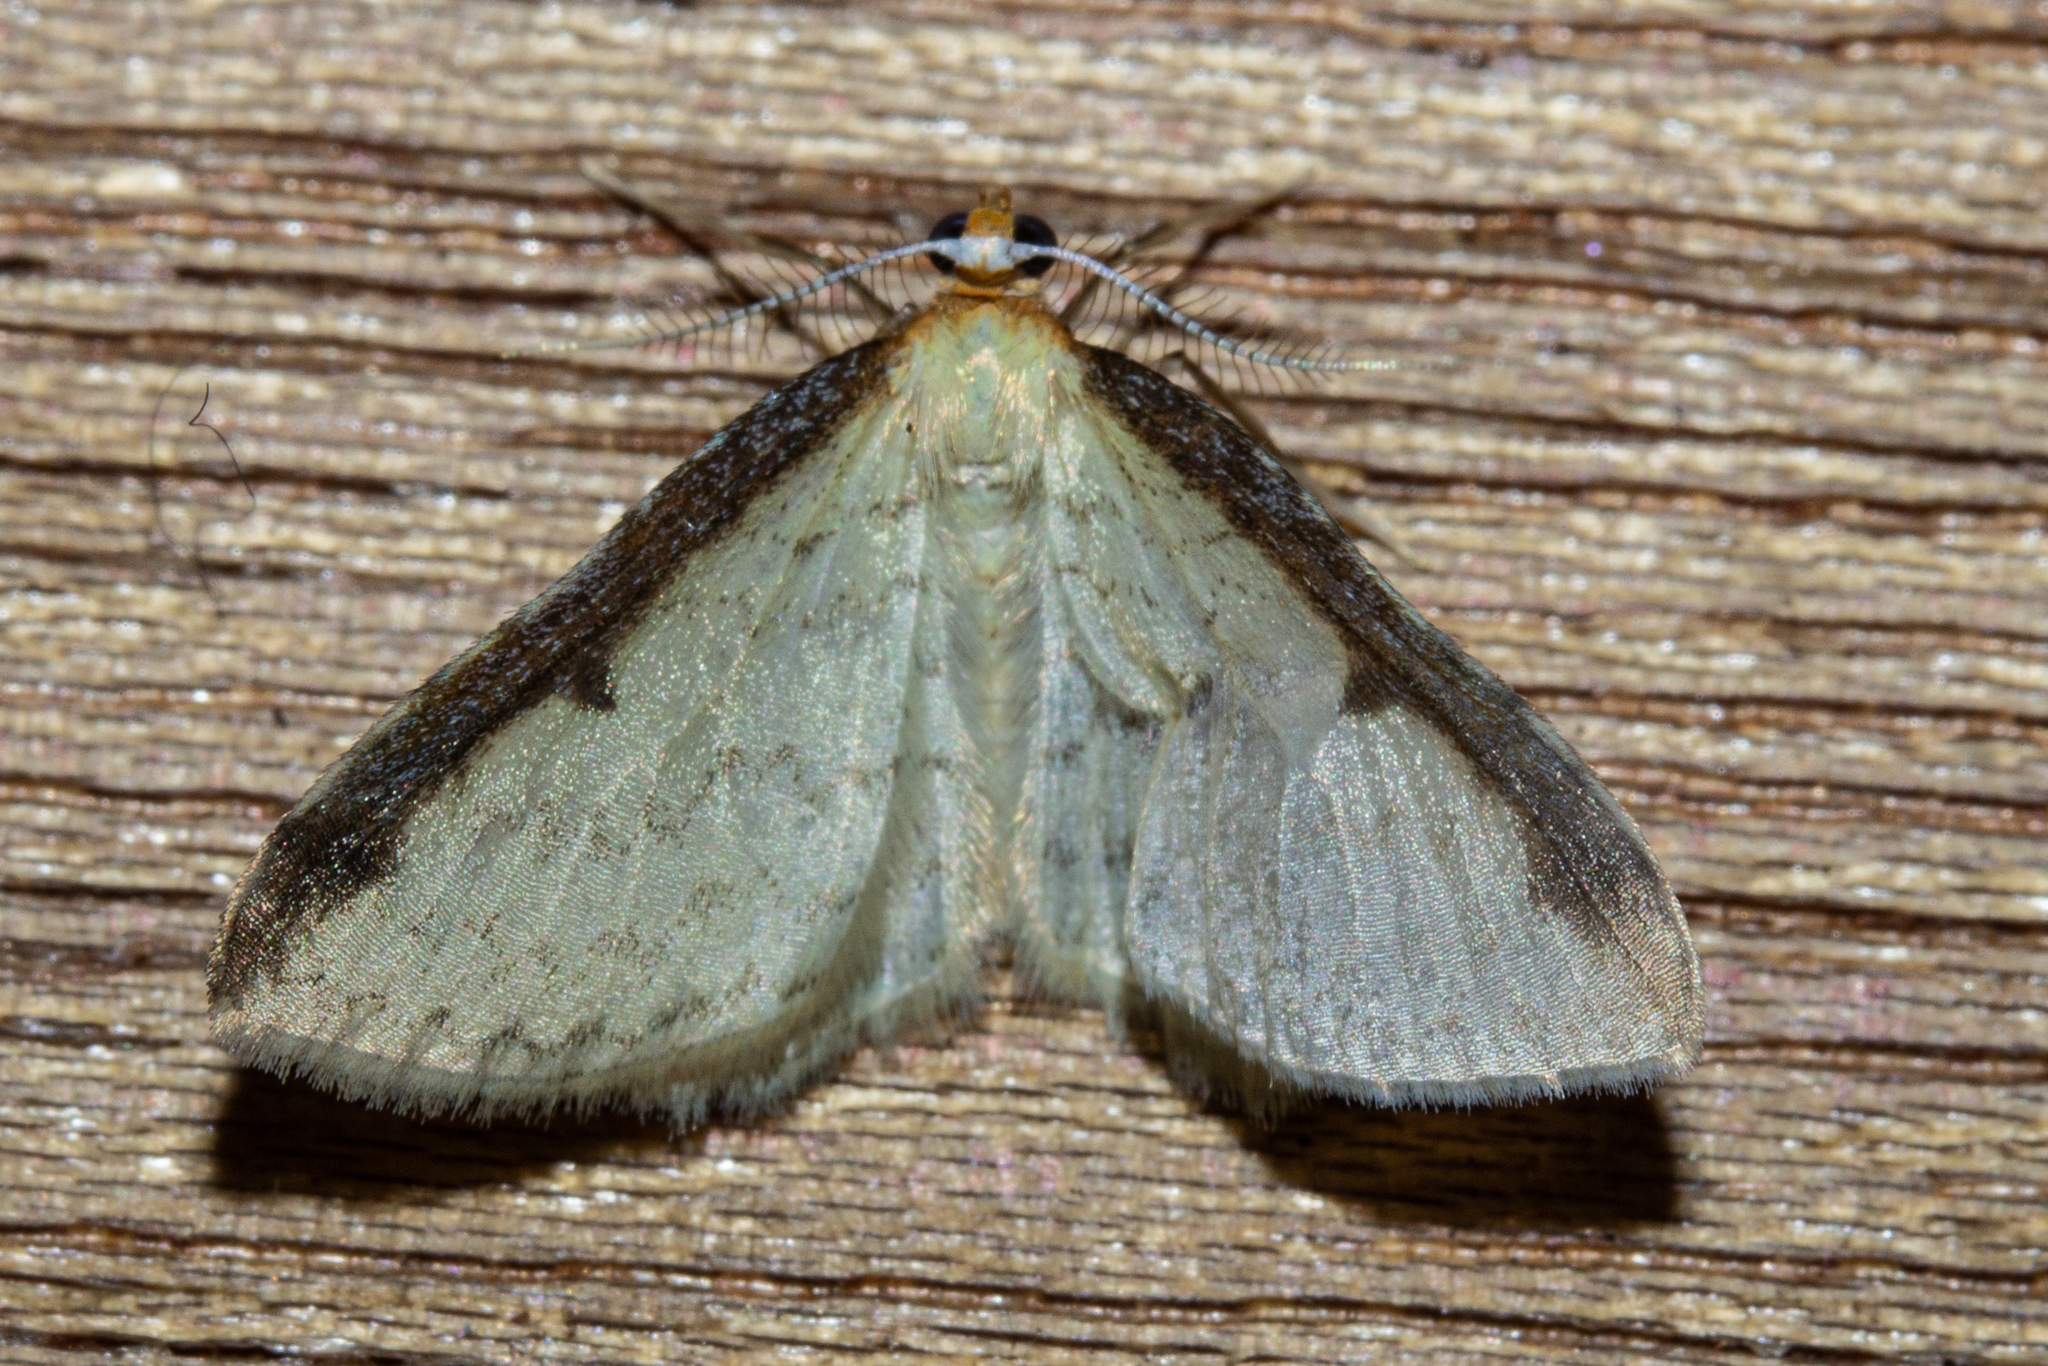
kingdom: Animalia
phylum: Arthropoda
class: Insecta
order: Lepidoptera
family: Geometridae
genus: Epiphryne
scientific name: Epiphryne undosata
